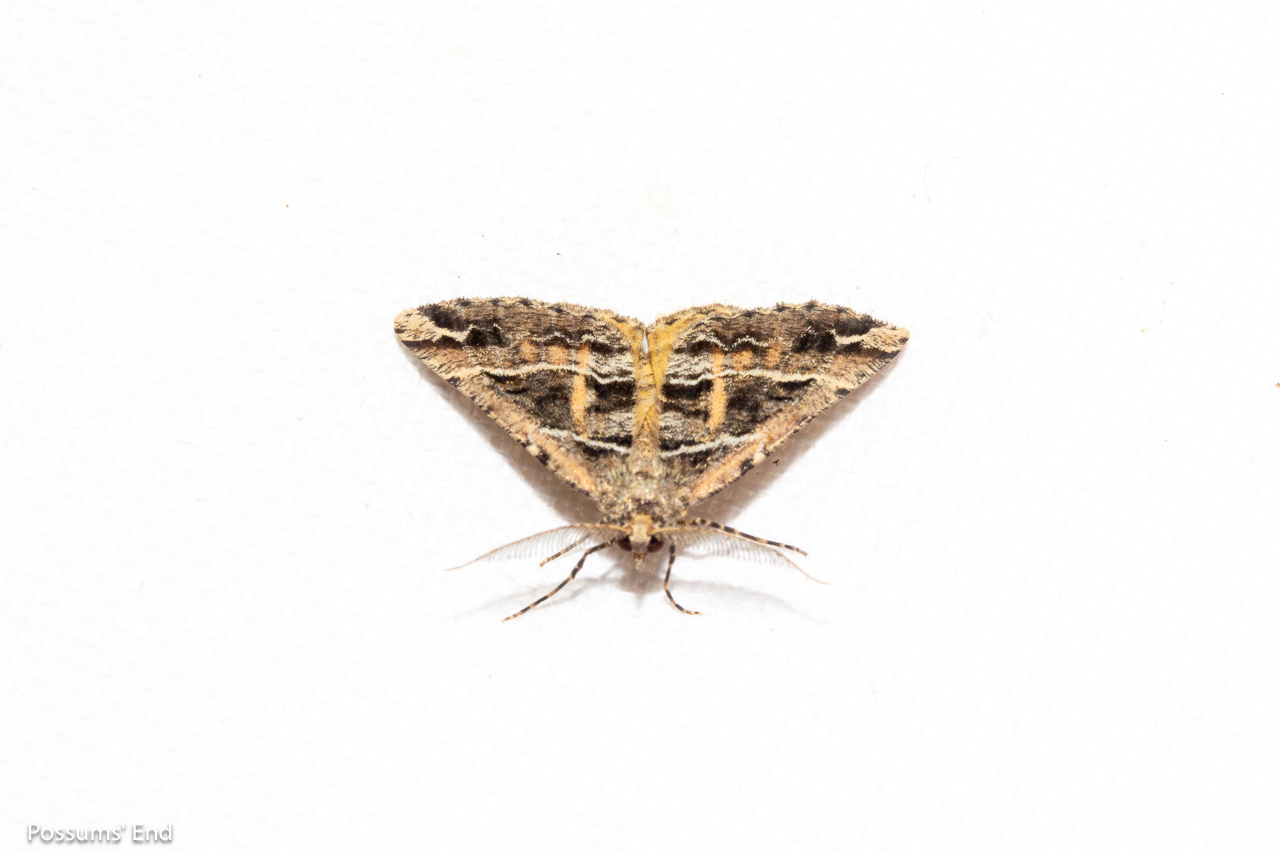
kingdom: Animalia
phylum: Arthropoda
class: Insecta
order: Lepidoptera
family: Geometridae
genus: Pseudocoremia
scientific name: Pseudocoremia melinata
